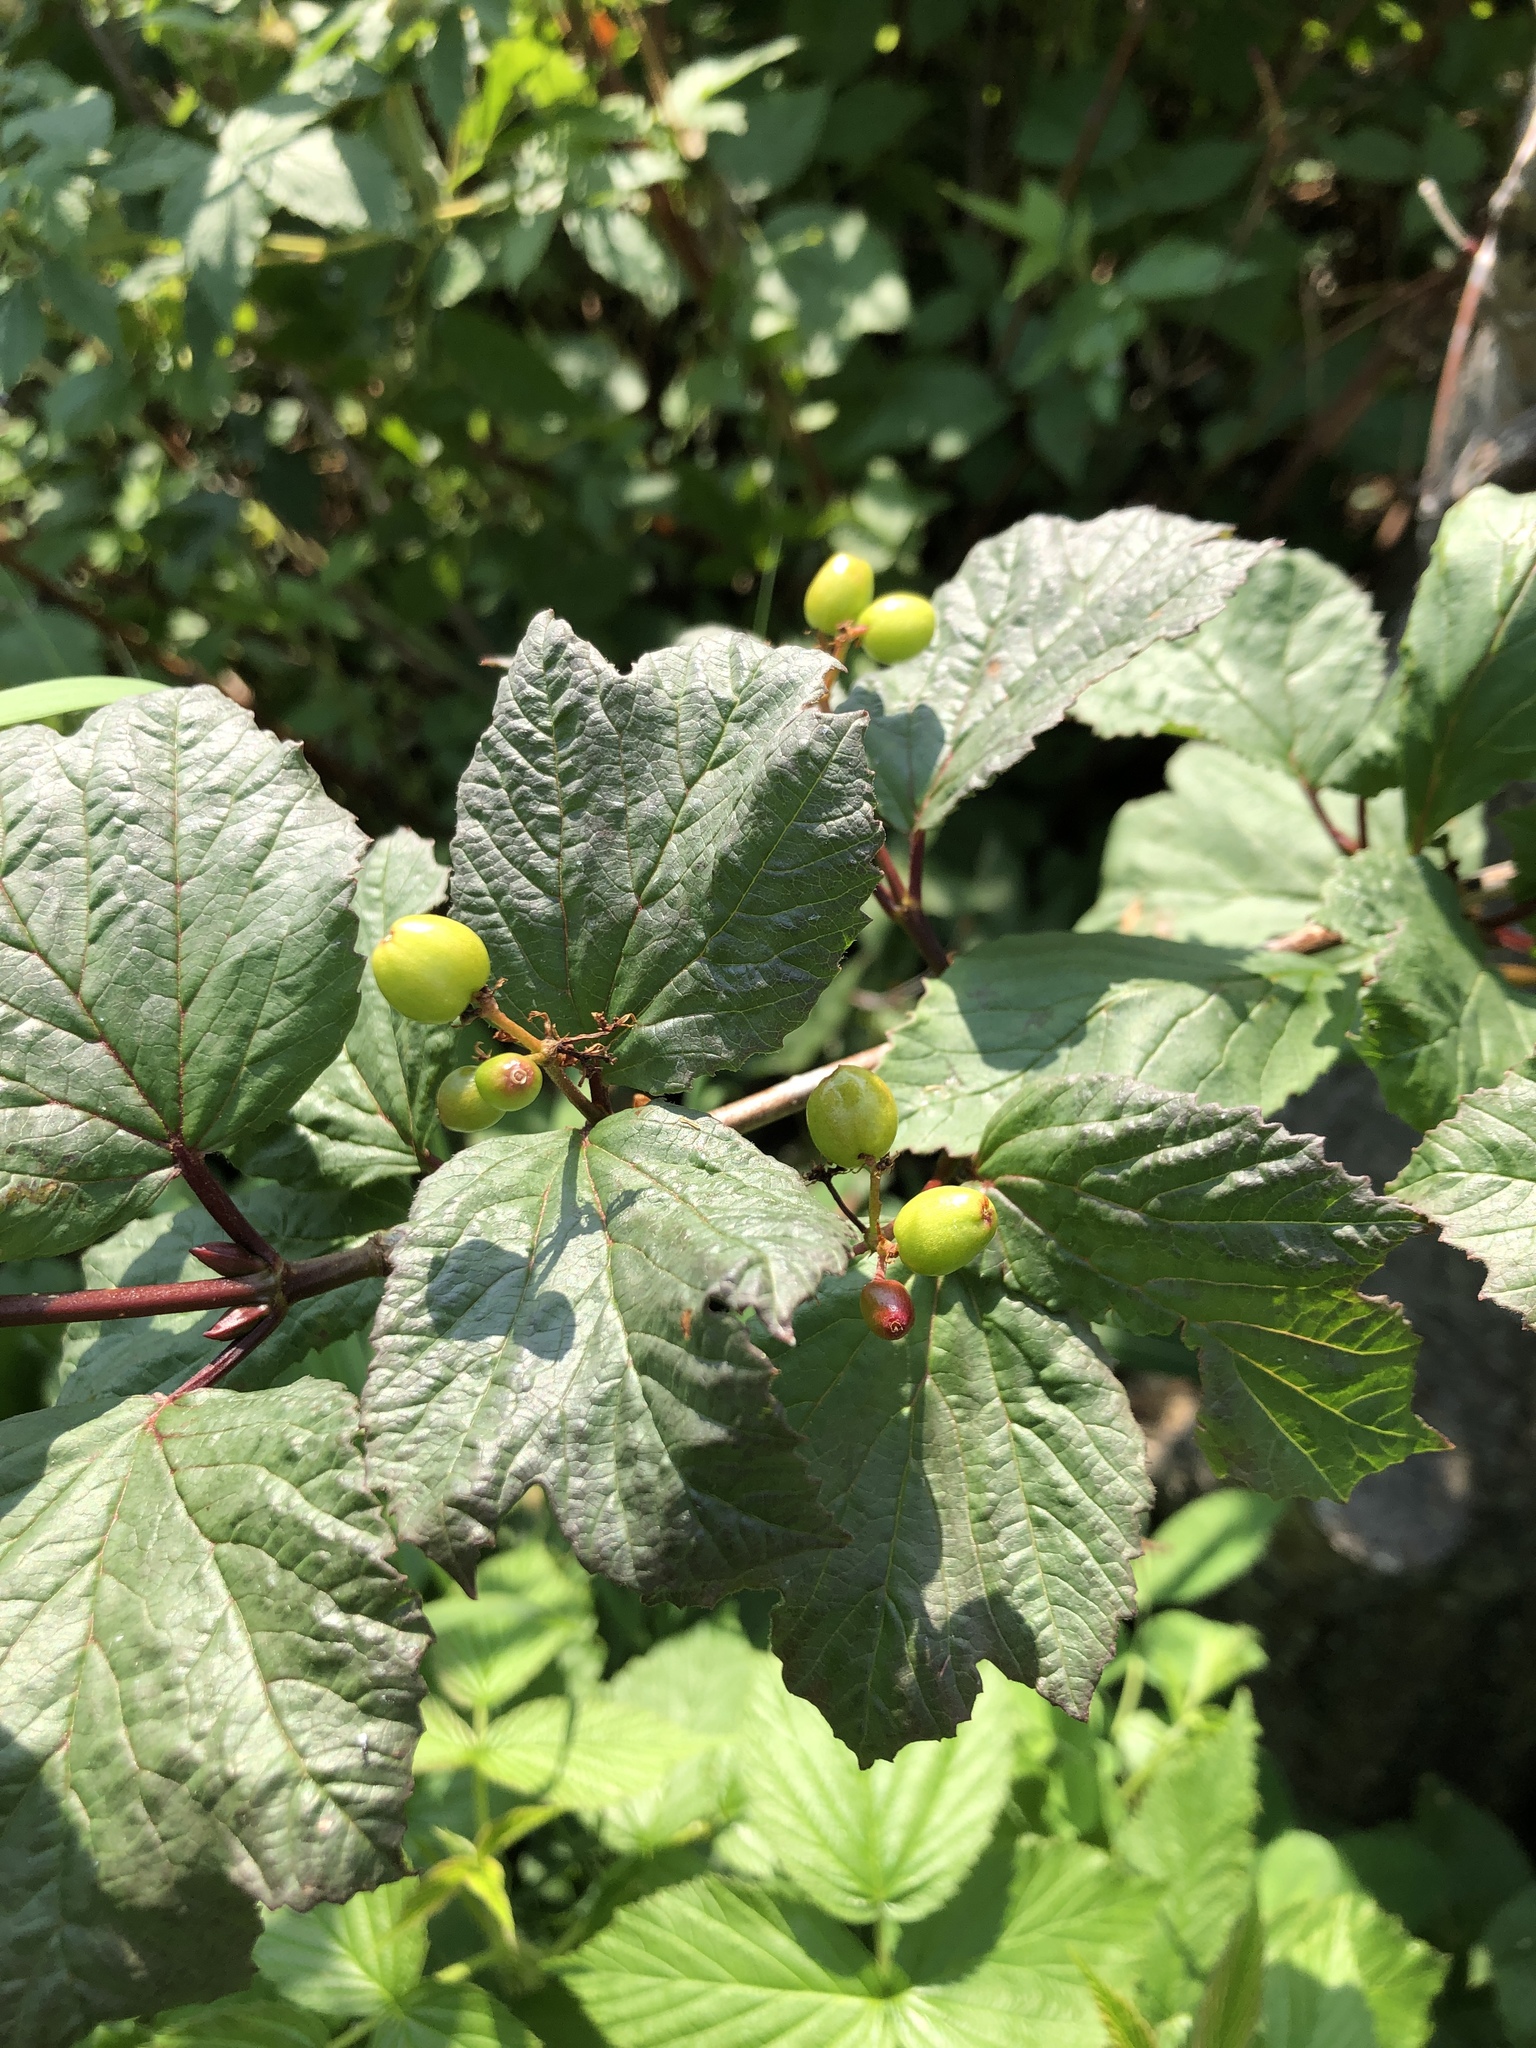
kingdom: Plantae
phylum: Tracheophyta
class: Magnoliopsida
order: Dipsacales
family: Viburnaceae
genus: Viburnum
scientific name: Viburnum edule
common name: Mooseberry
